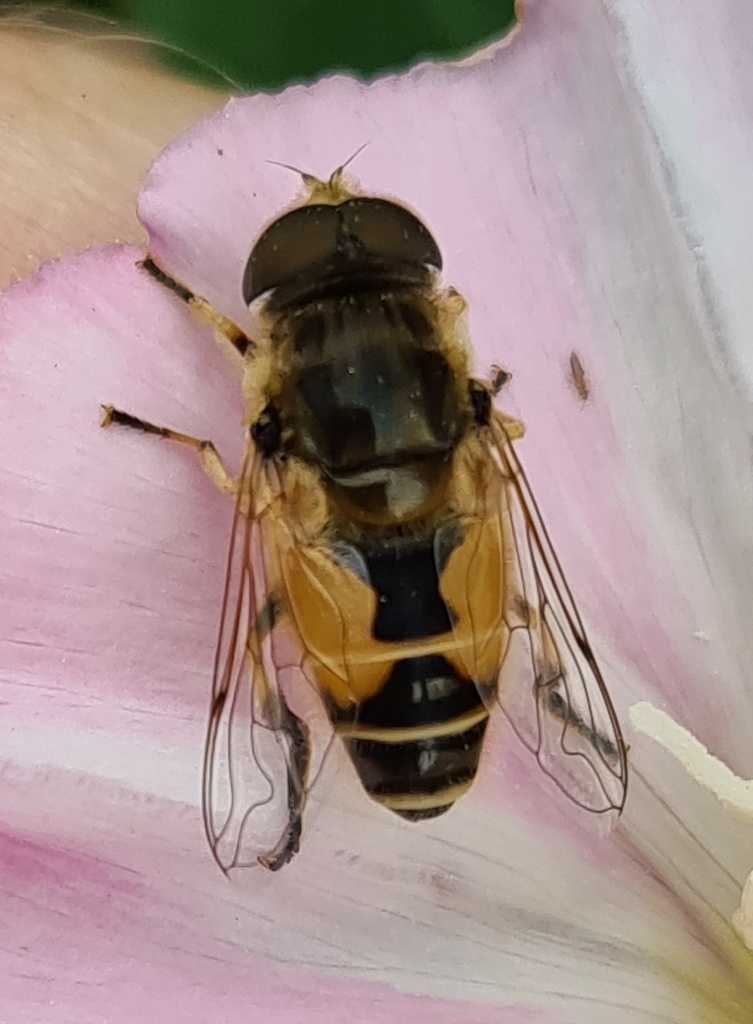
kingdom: Animalia
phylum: Arthropoda
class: Insecta
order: Diptera
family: Syrphidae
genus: Eristalis
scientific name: Eristalis arbustorum
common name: Hover fly
